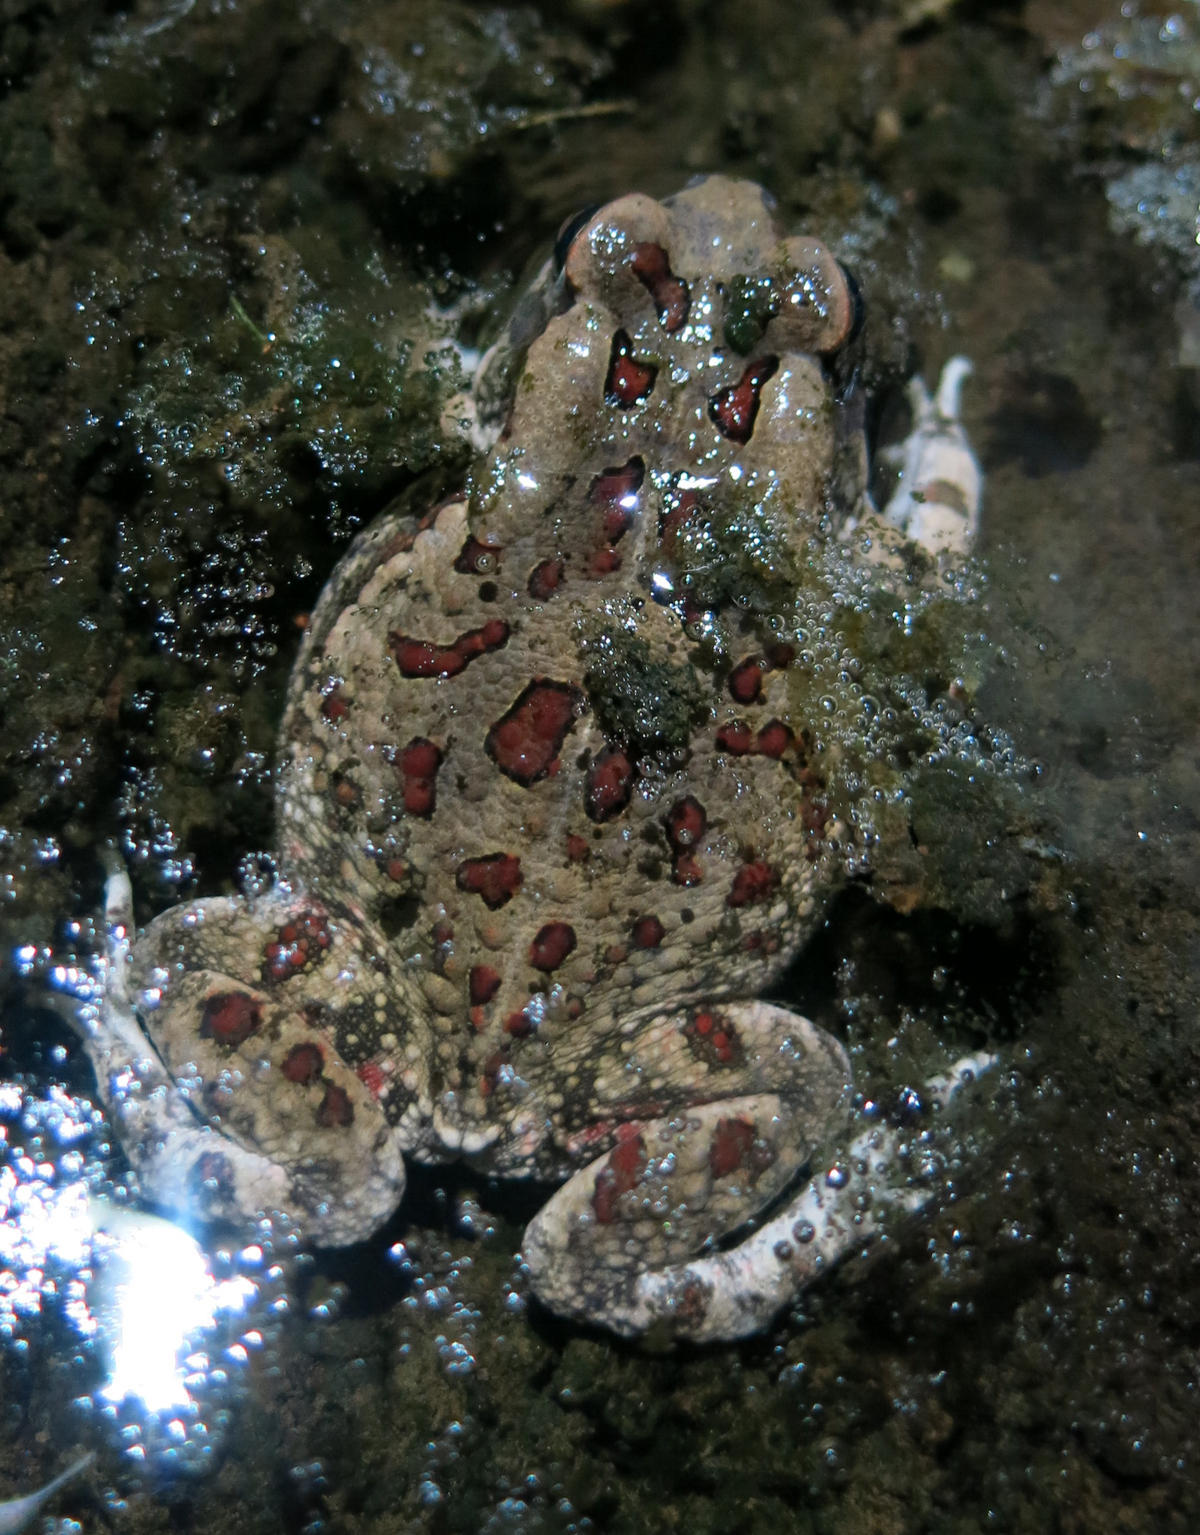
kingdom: Animalia
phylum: Chordata
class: Amphibia
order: Anura
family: Bufonidae
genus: Sclerophrys
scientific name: Sclerophrys garmani
